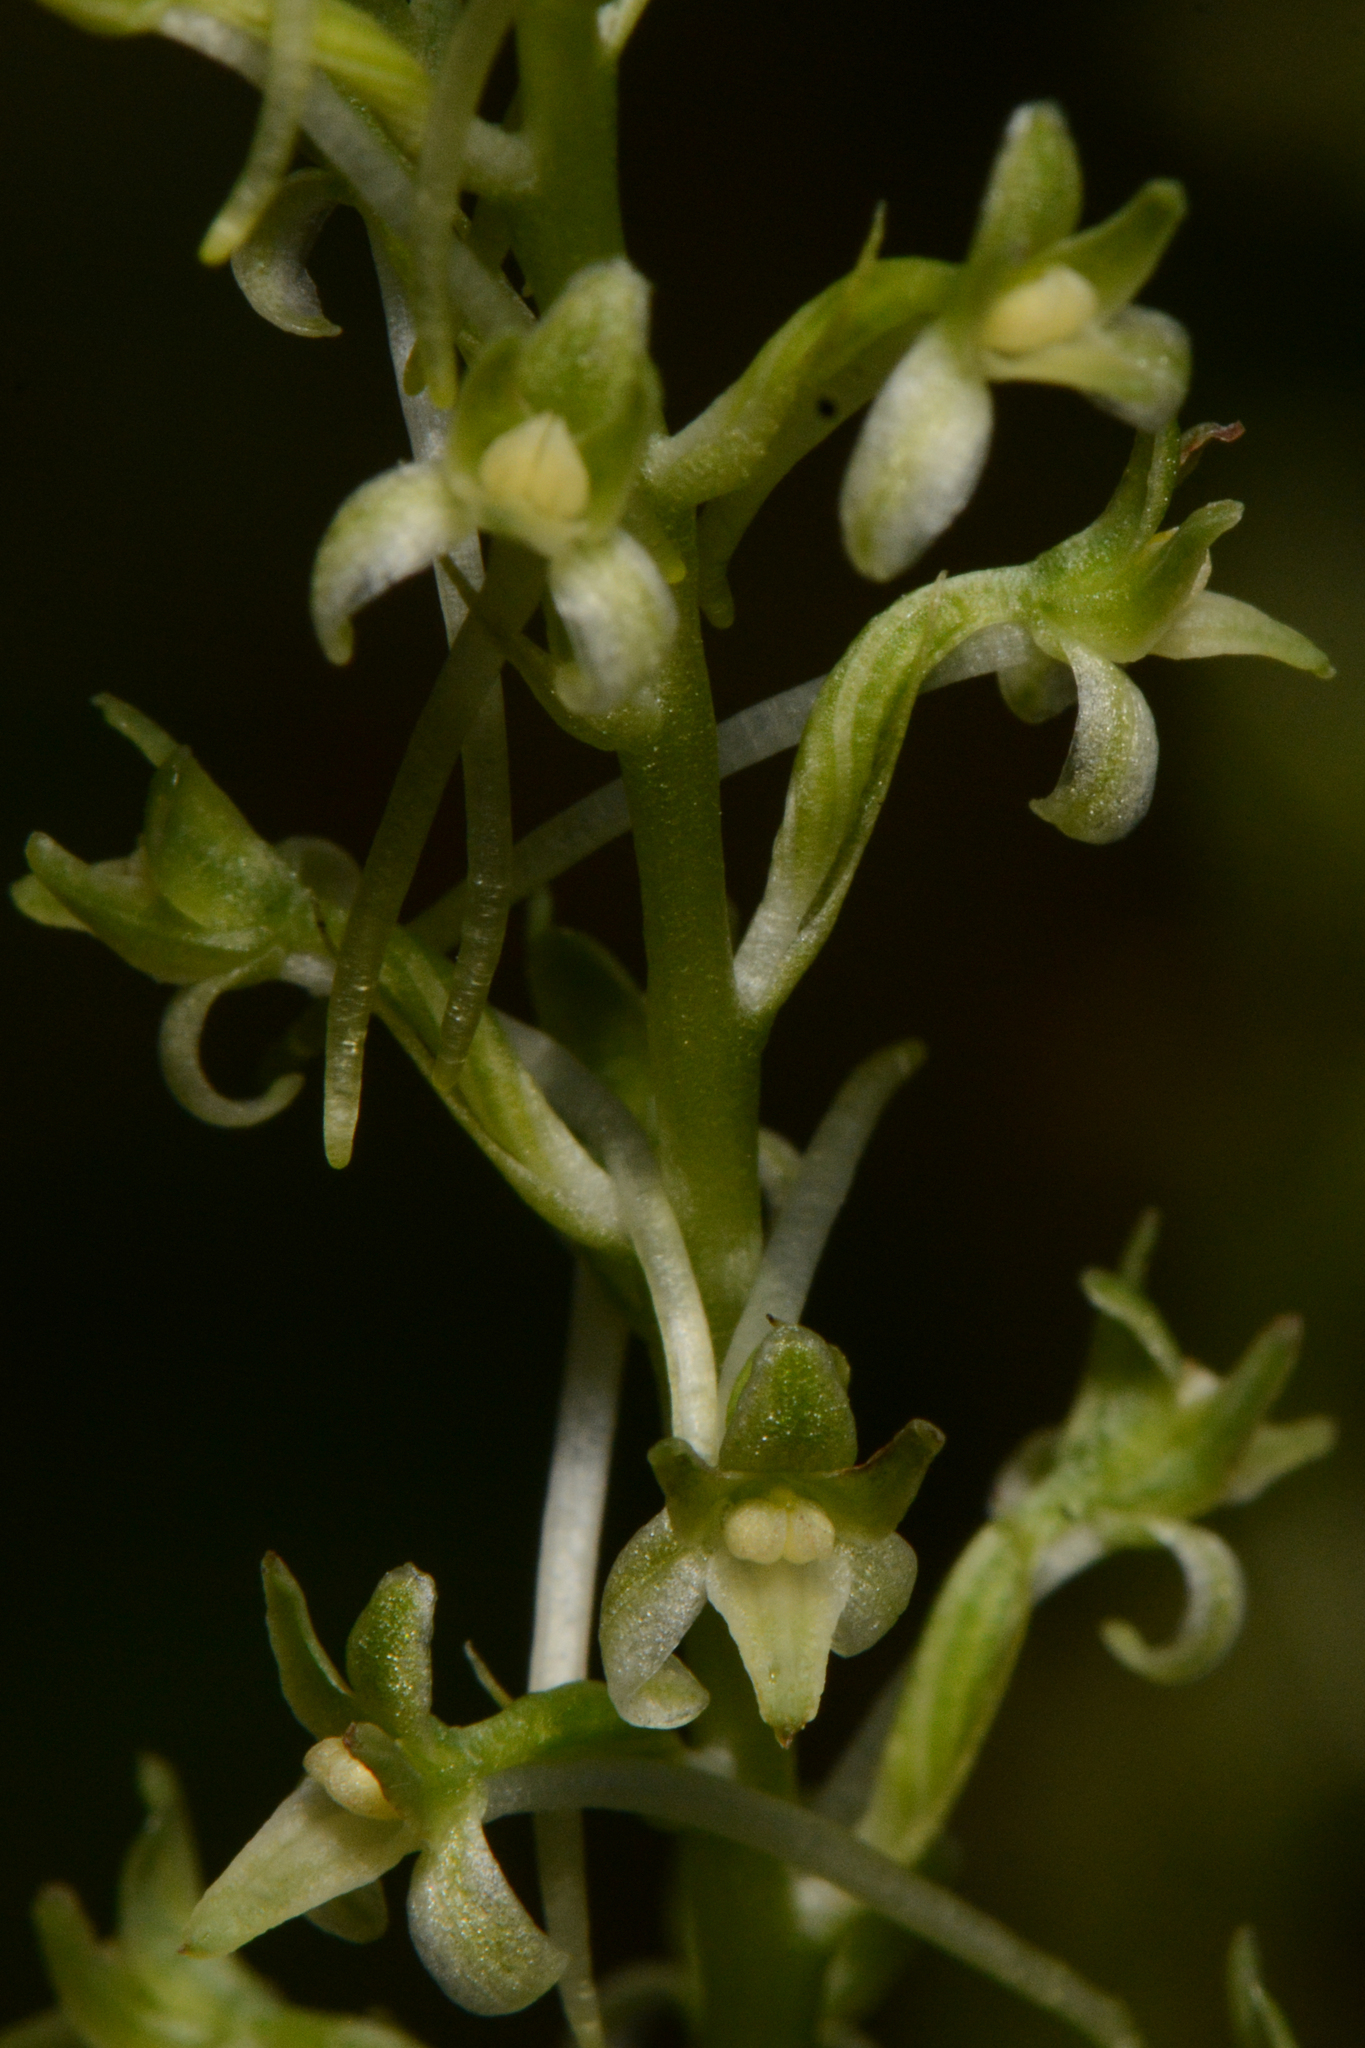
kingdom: Plantae
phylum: Tracheophyta
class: Liliopsida
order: Asparagales
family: Orchidaceae
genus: Platanthera
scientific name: Platanthera elongata
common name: Dense-flowered rein orchid
